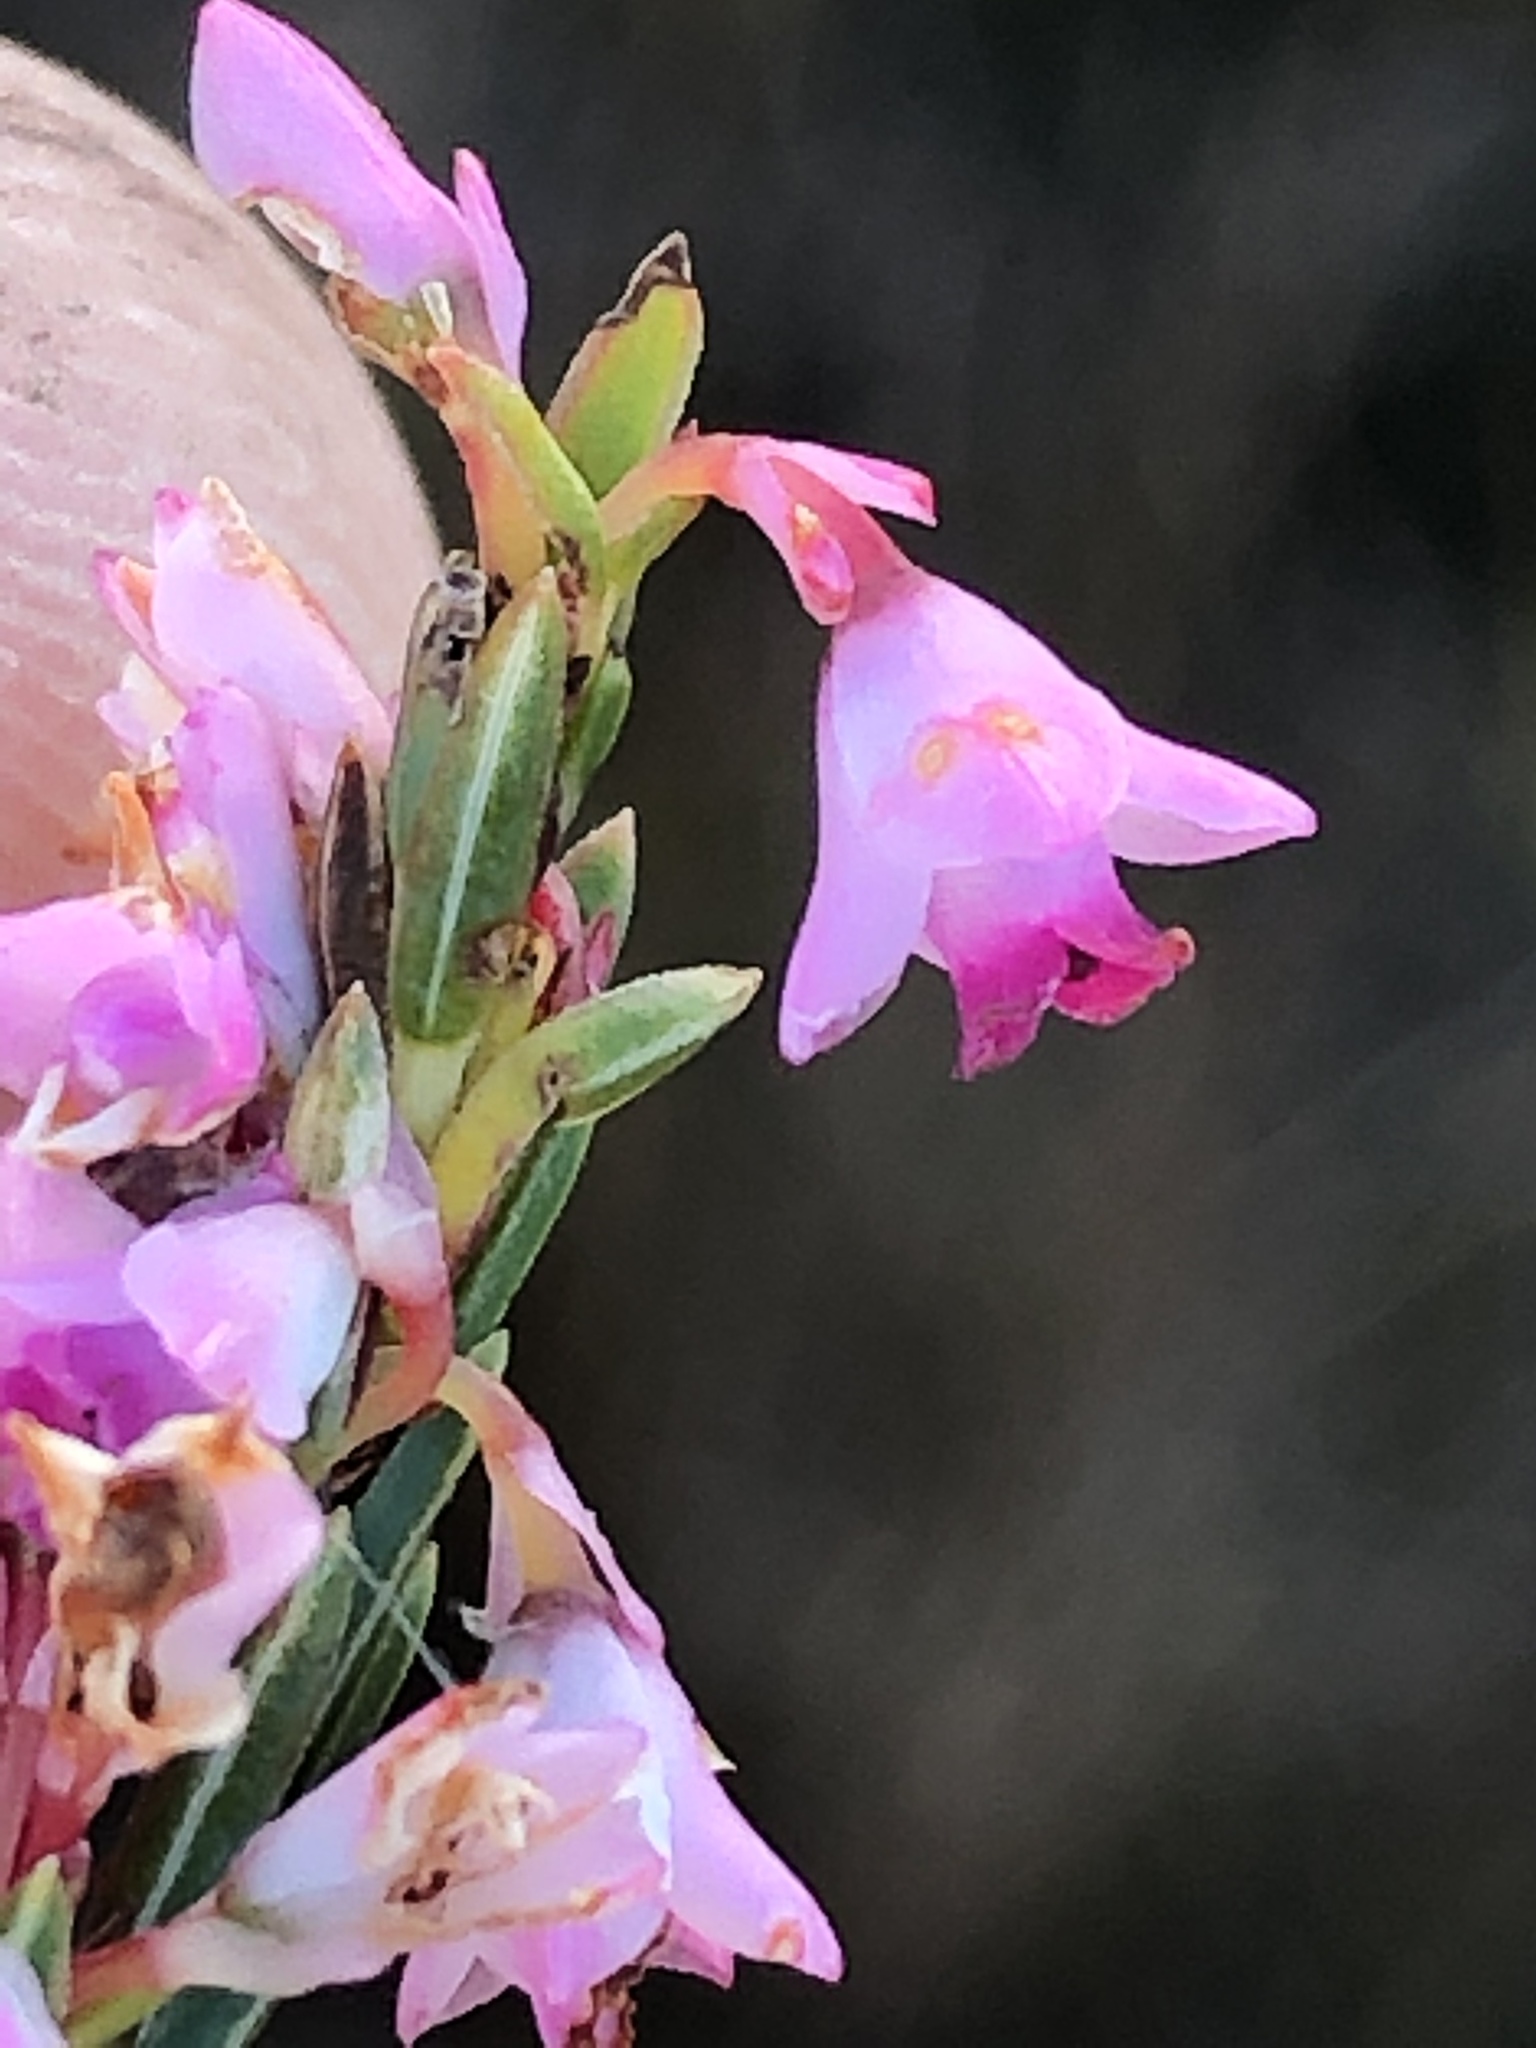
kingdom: Plantae
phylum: Tracheophyta
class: Magnoliopsida
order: Ericales
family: Ericaceae
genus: Erica
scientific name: Erica corifolia
